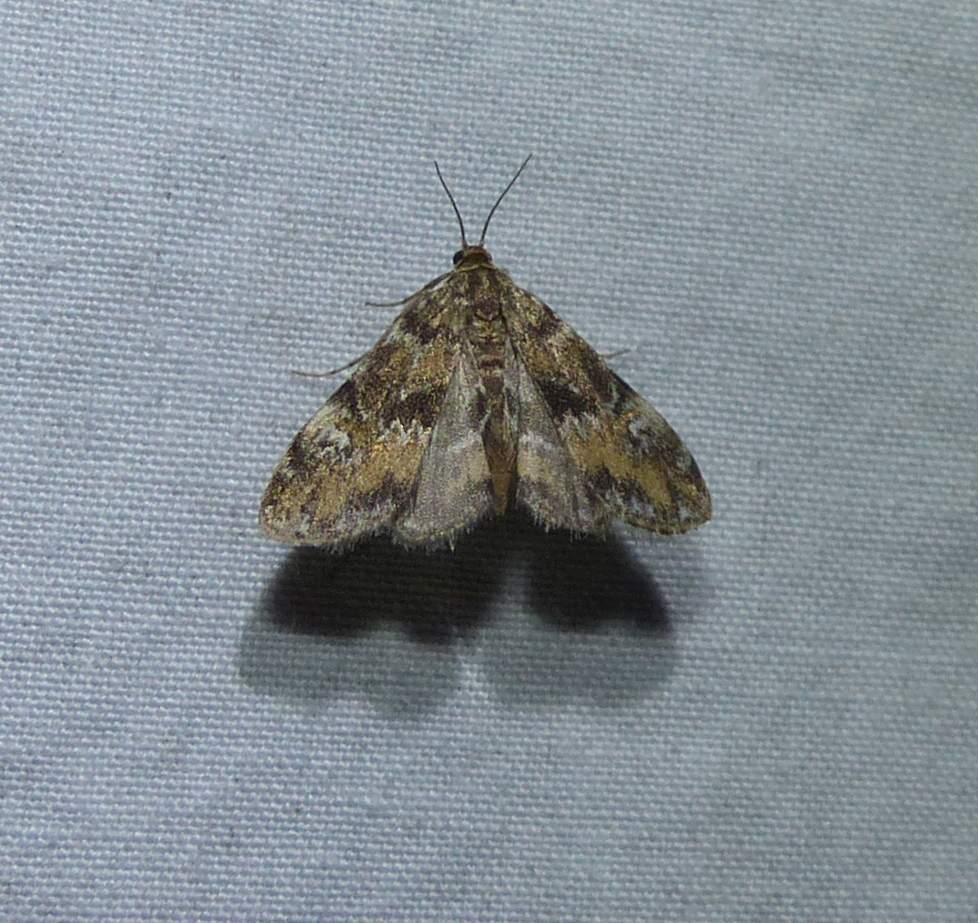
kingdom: Animalia
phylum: Arthropoda
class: Insecta
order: Lepidoptera
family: Crambidae
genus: Elophila
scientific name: Elophila obliteralis
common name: Waterlily leafcutter moth
